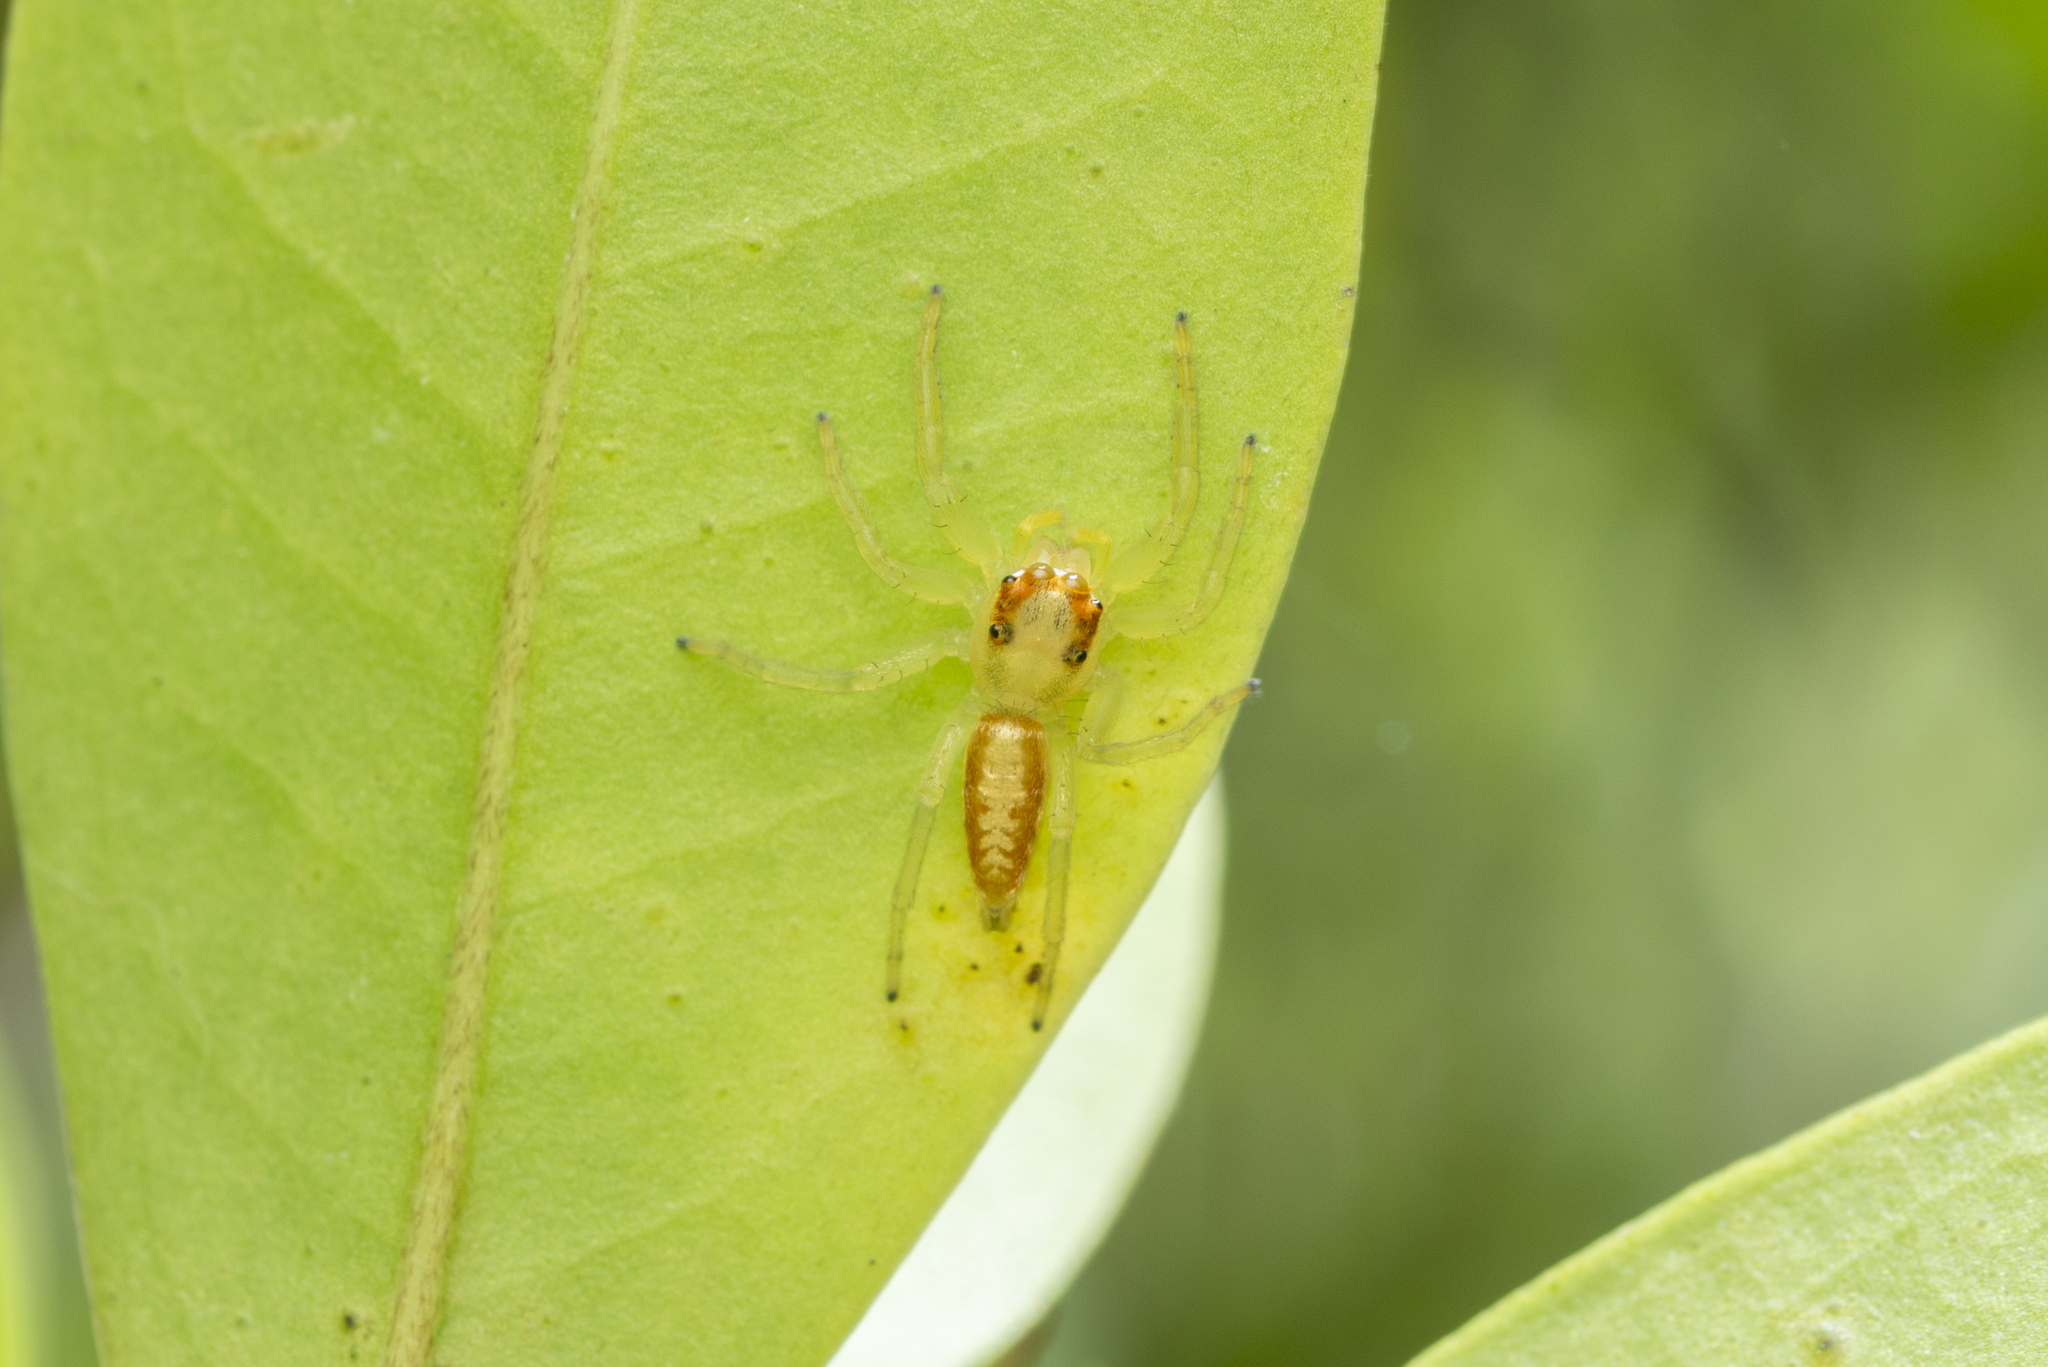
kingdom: Animalia
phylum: Arthropoda
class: Arachnida
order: Araneae
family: Salticidae
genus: Epocilla
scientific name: Epocilla calcarata
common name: Jumping spider
